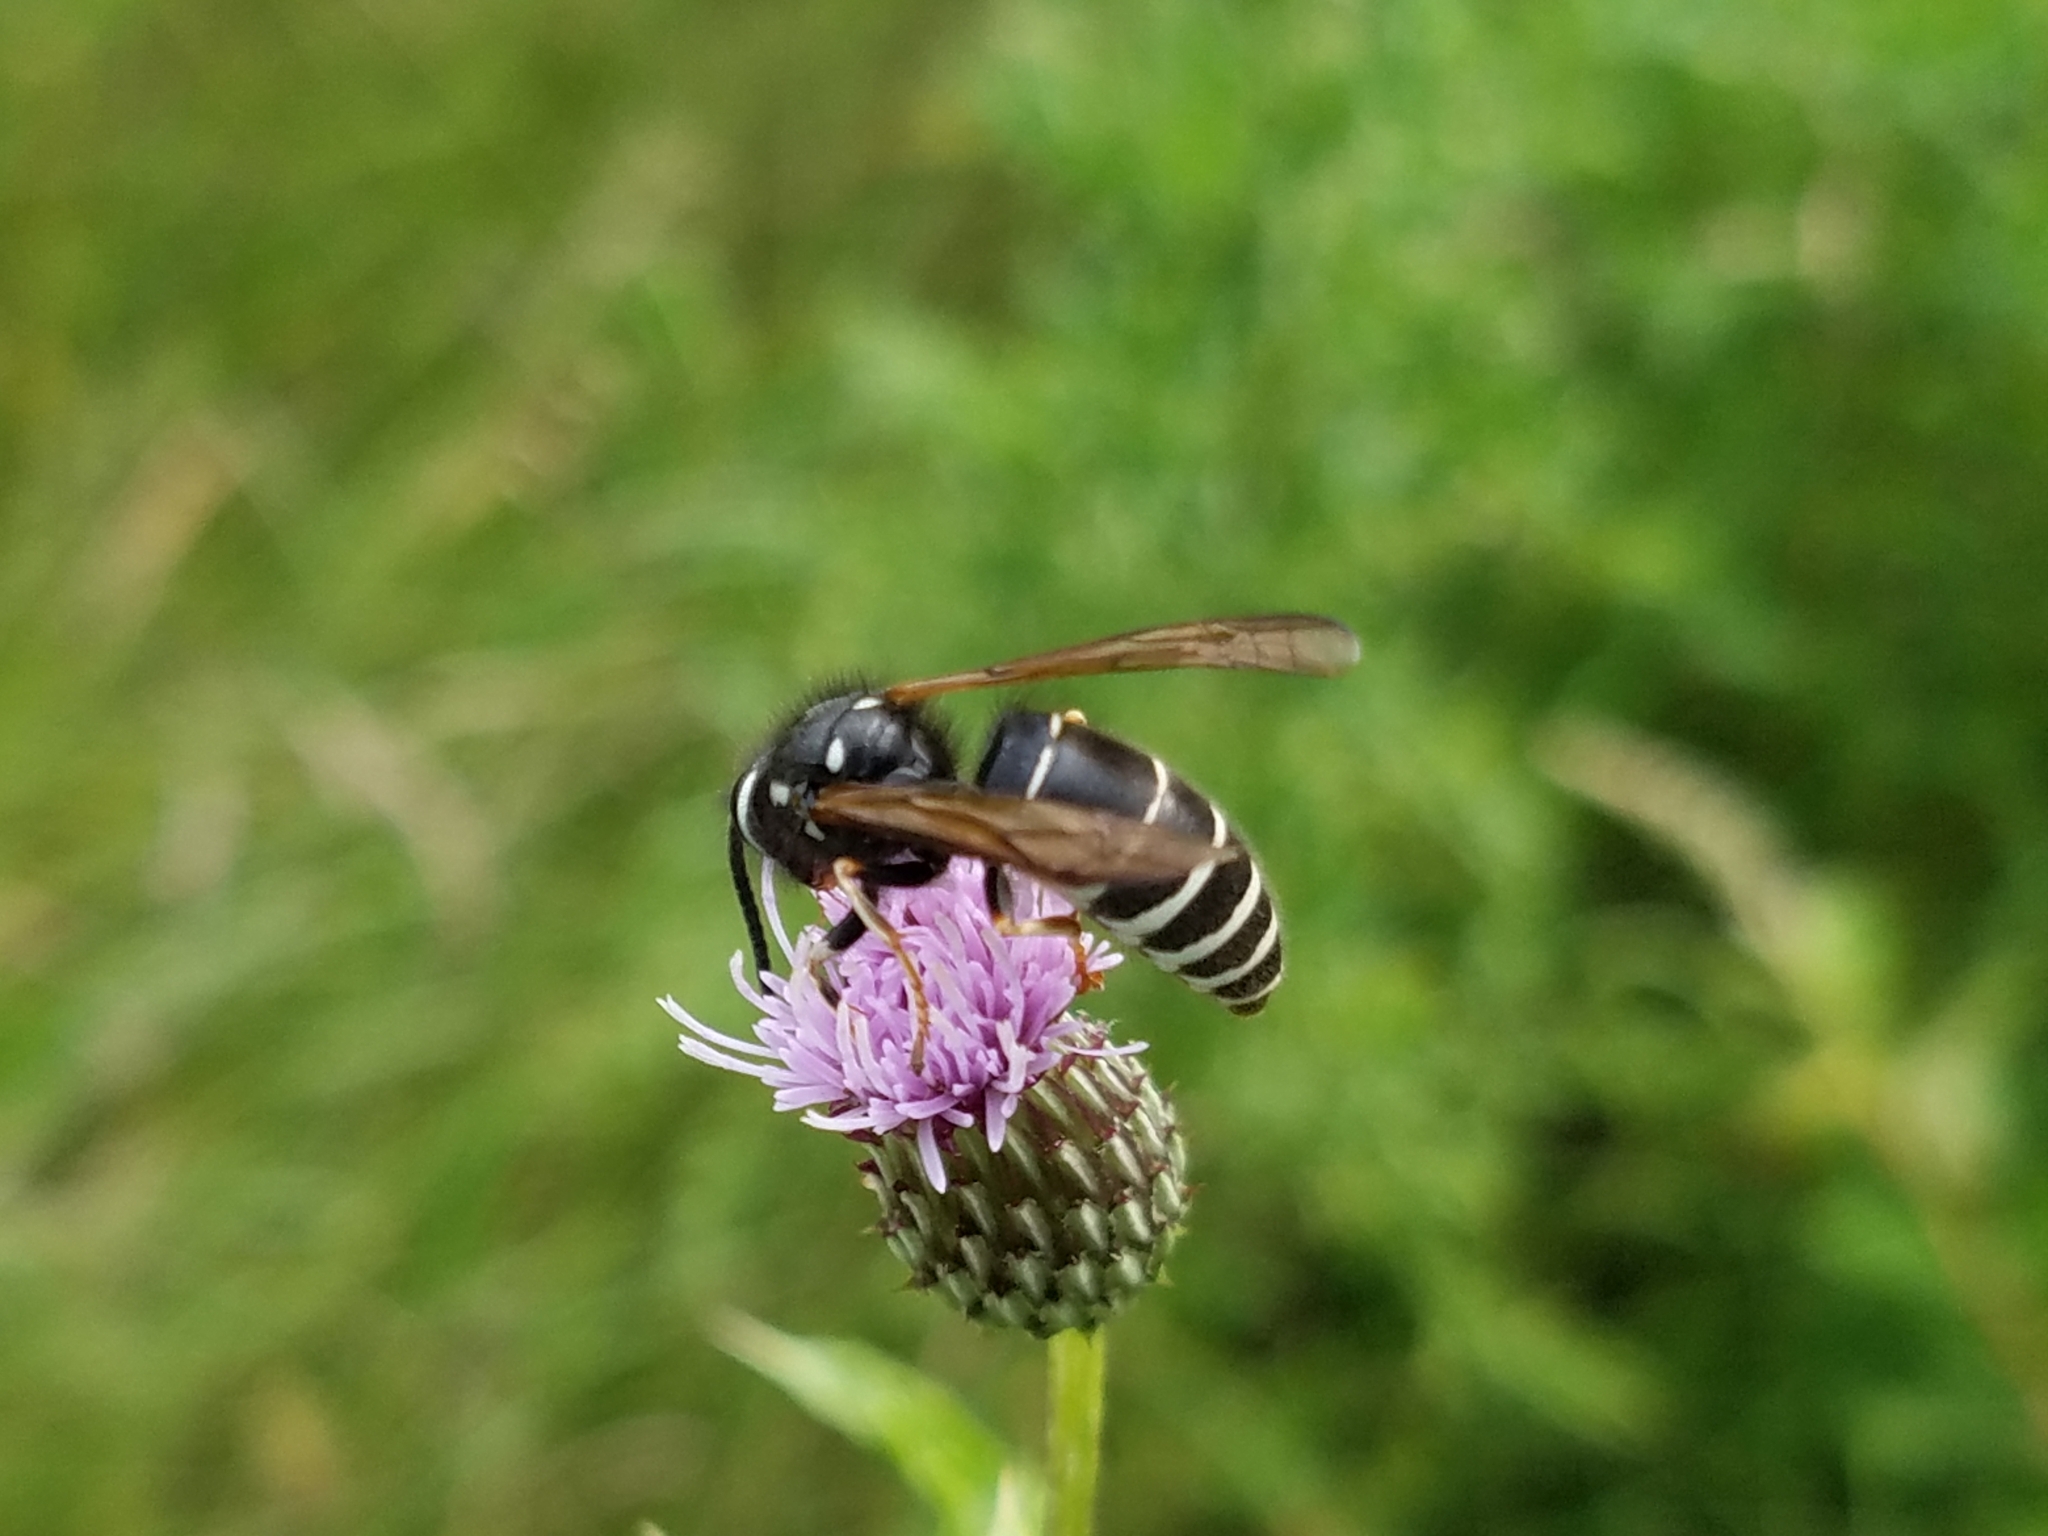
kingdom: Animalia
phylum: Arthropoda
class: Insecta
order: Hymenoptera
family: Vespidae
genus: Vespula
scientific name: Vespula consobrina
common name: Blackjacket
